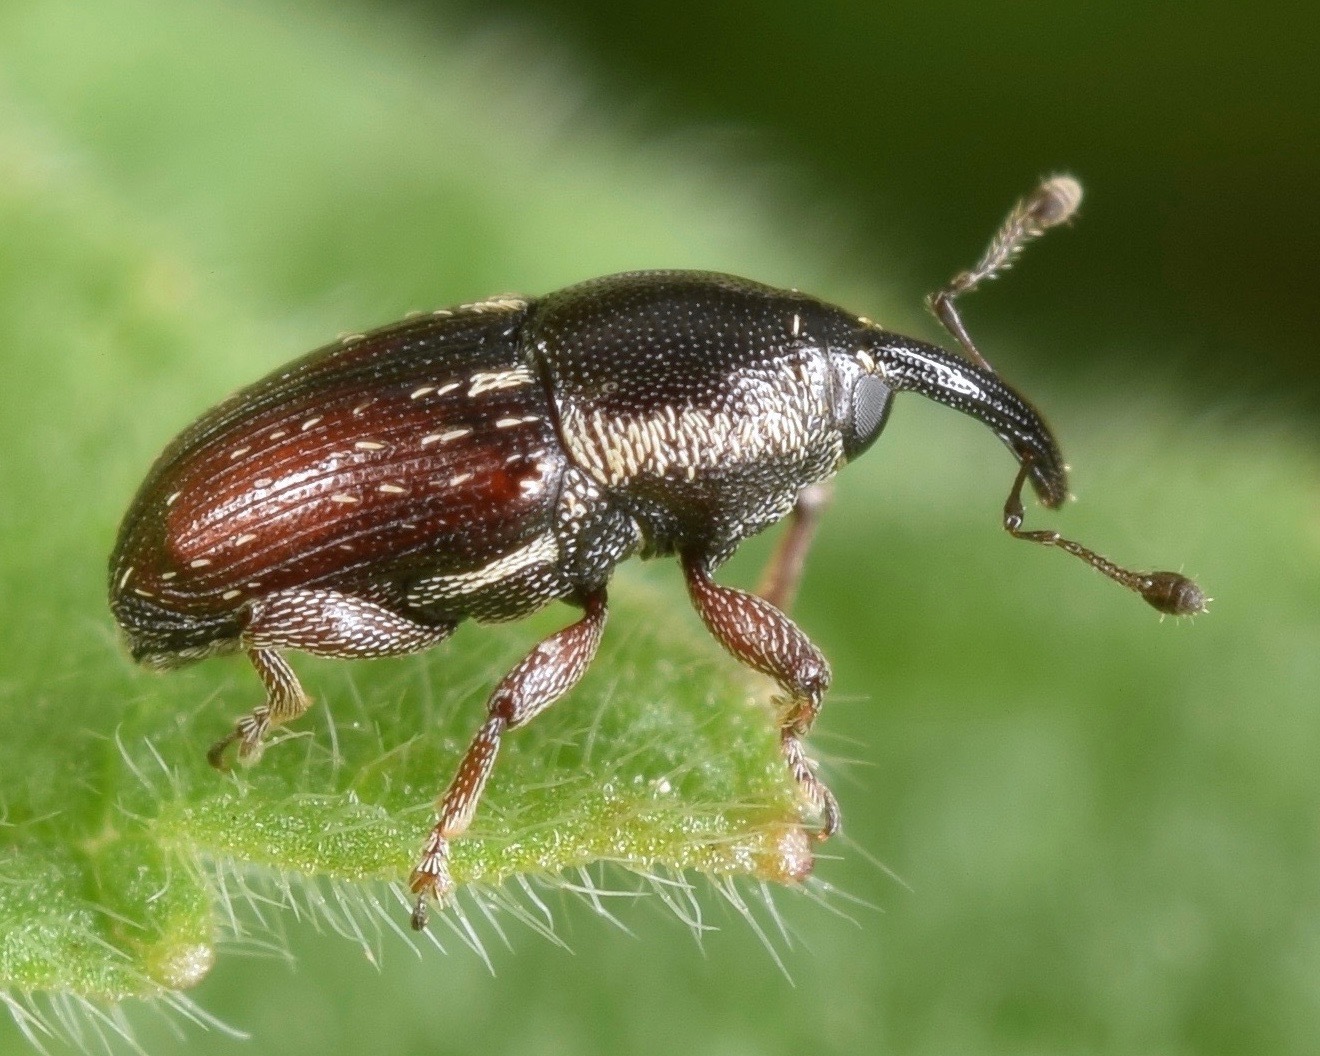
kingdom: Animalia
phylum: Arthropoda
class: Insecta
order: Coleoptera
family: Curculionidae
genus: Apinocis
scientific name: Apinocis
